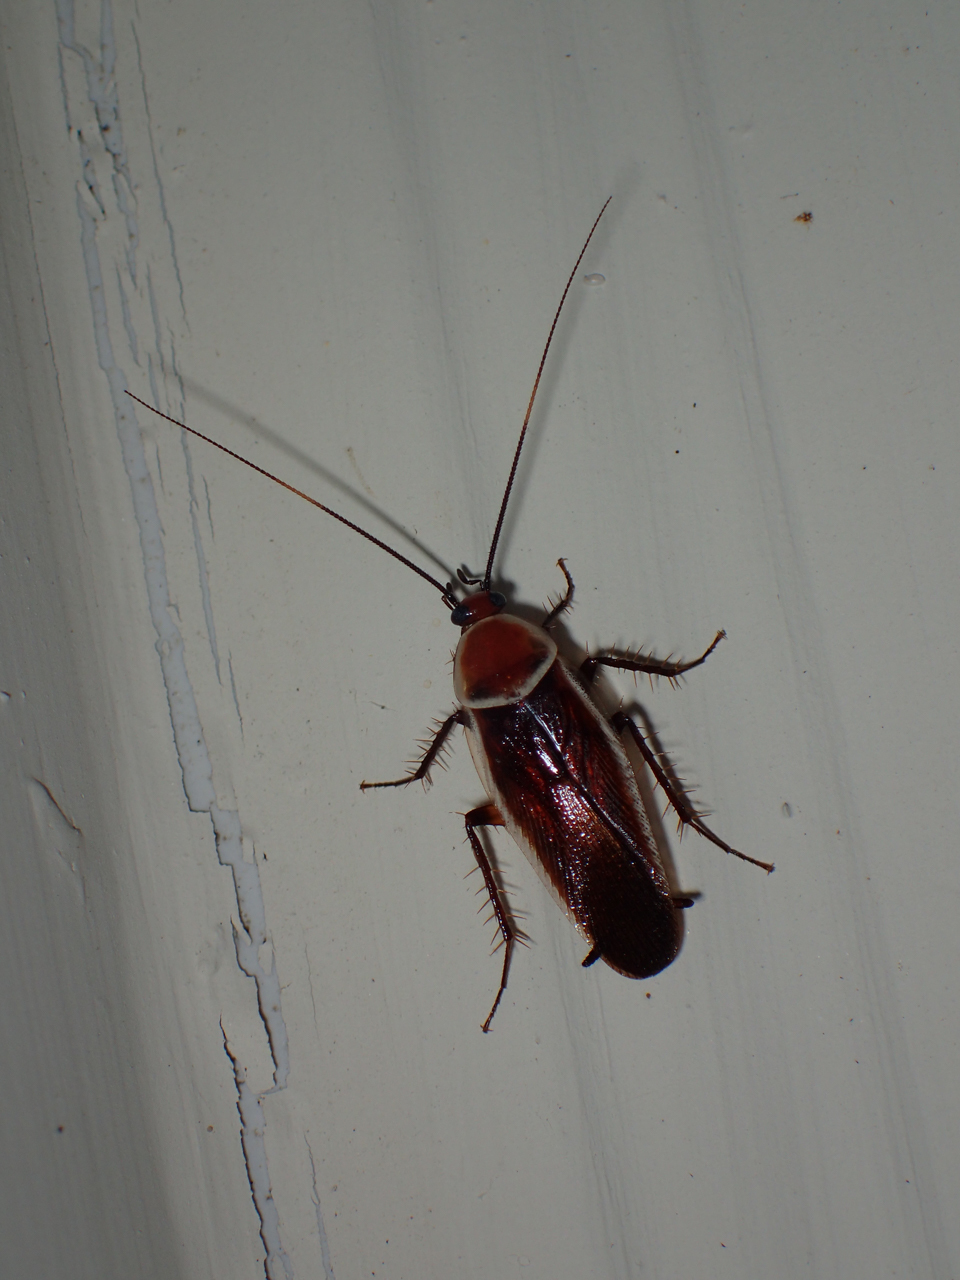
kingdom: Animalia
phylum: Arthropoda
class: Insecta
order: Blattodea
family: Ectobiidae
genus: Pseudomops
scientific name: Pseudomops septentrionalis
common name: Pale-bordered field cockroach
